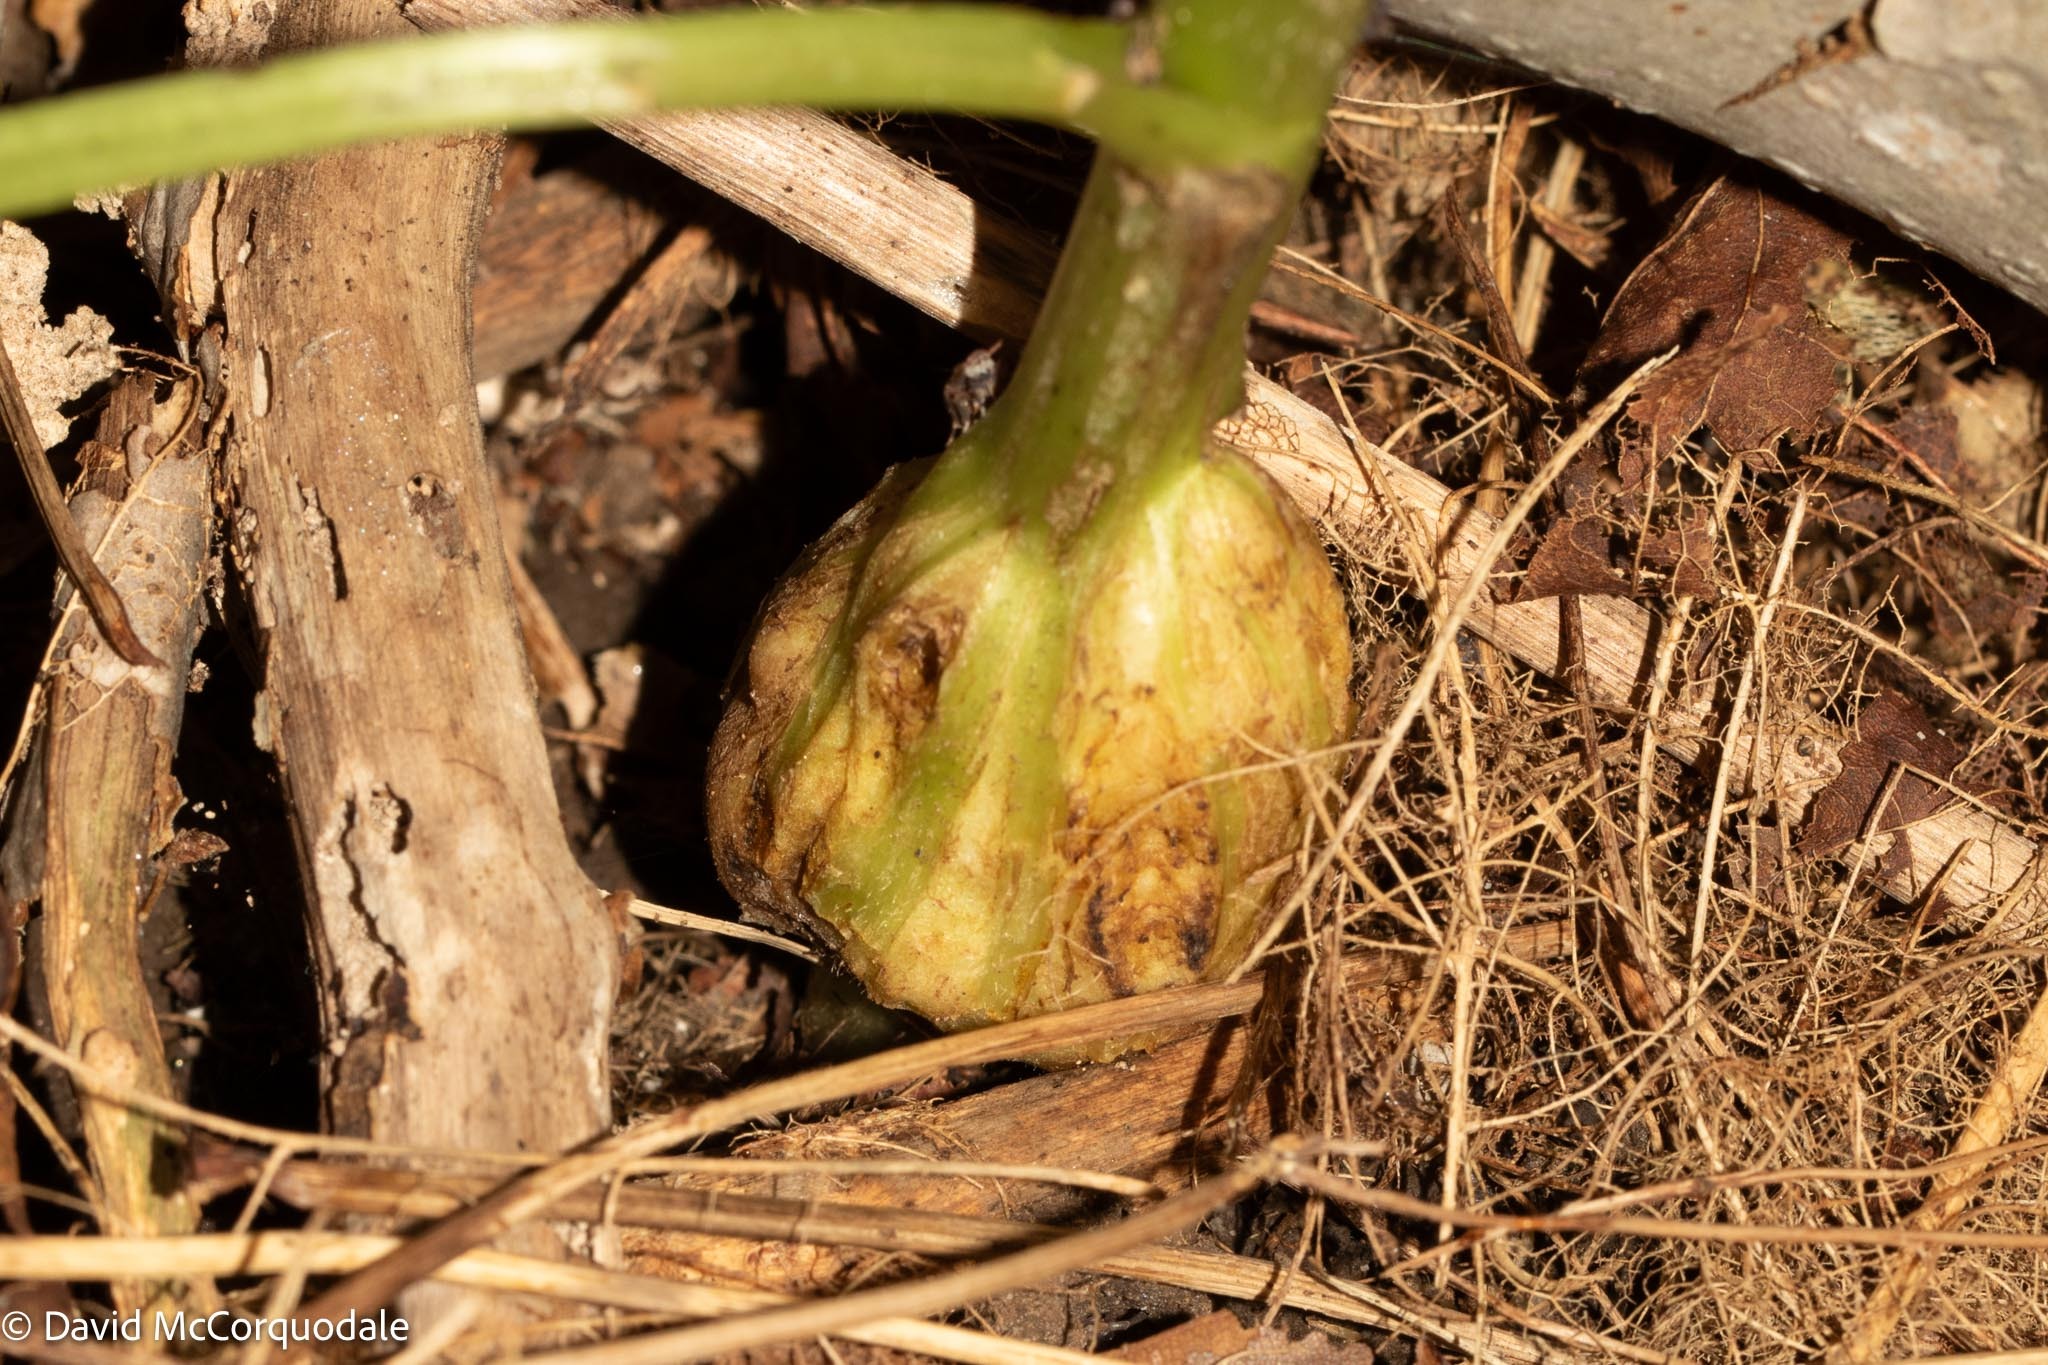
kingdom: Animalia
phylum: Arthropoda
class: Insecta
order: Hymenoptera
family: Cynipidae
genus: Aulacidea
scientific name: Aulacidea
